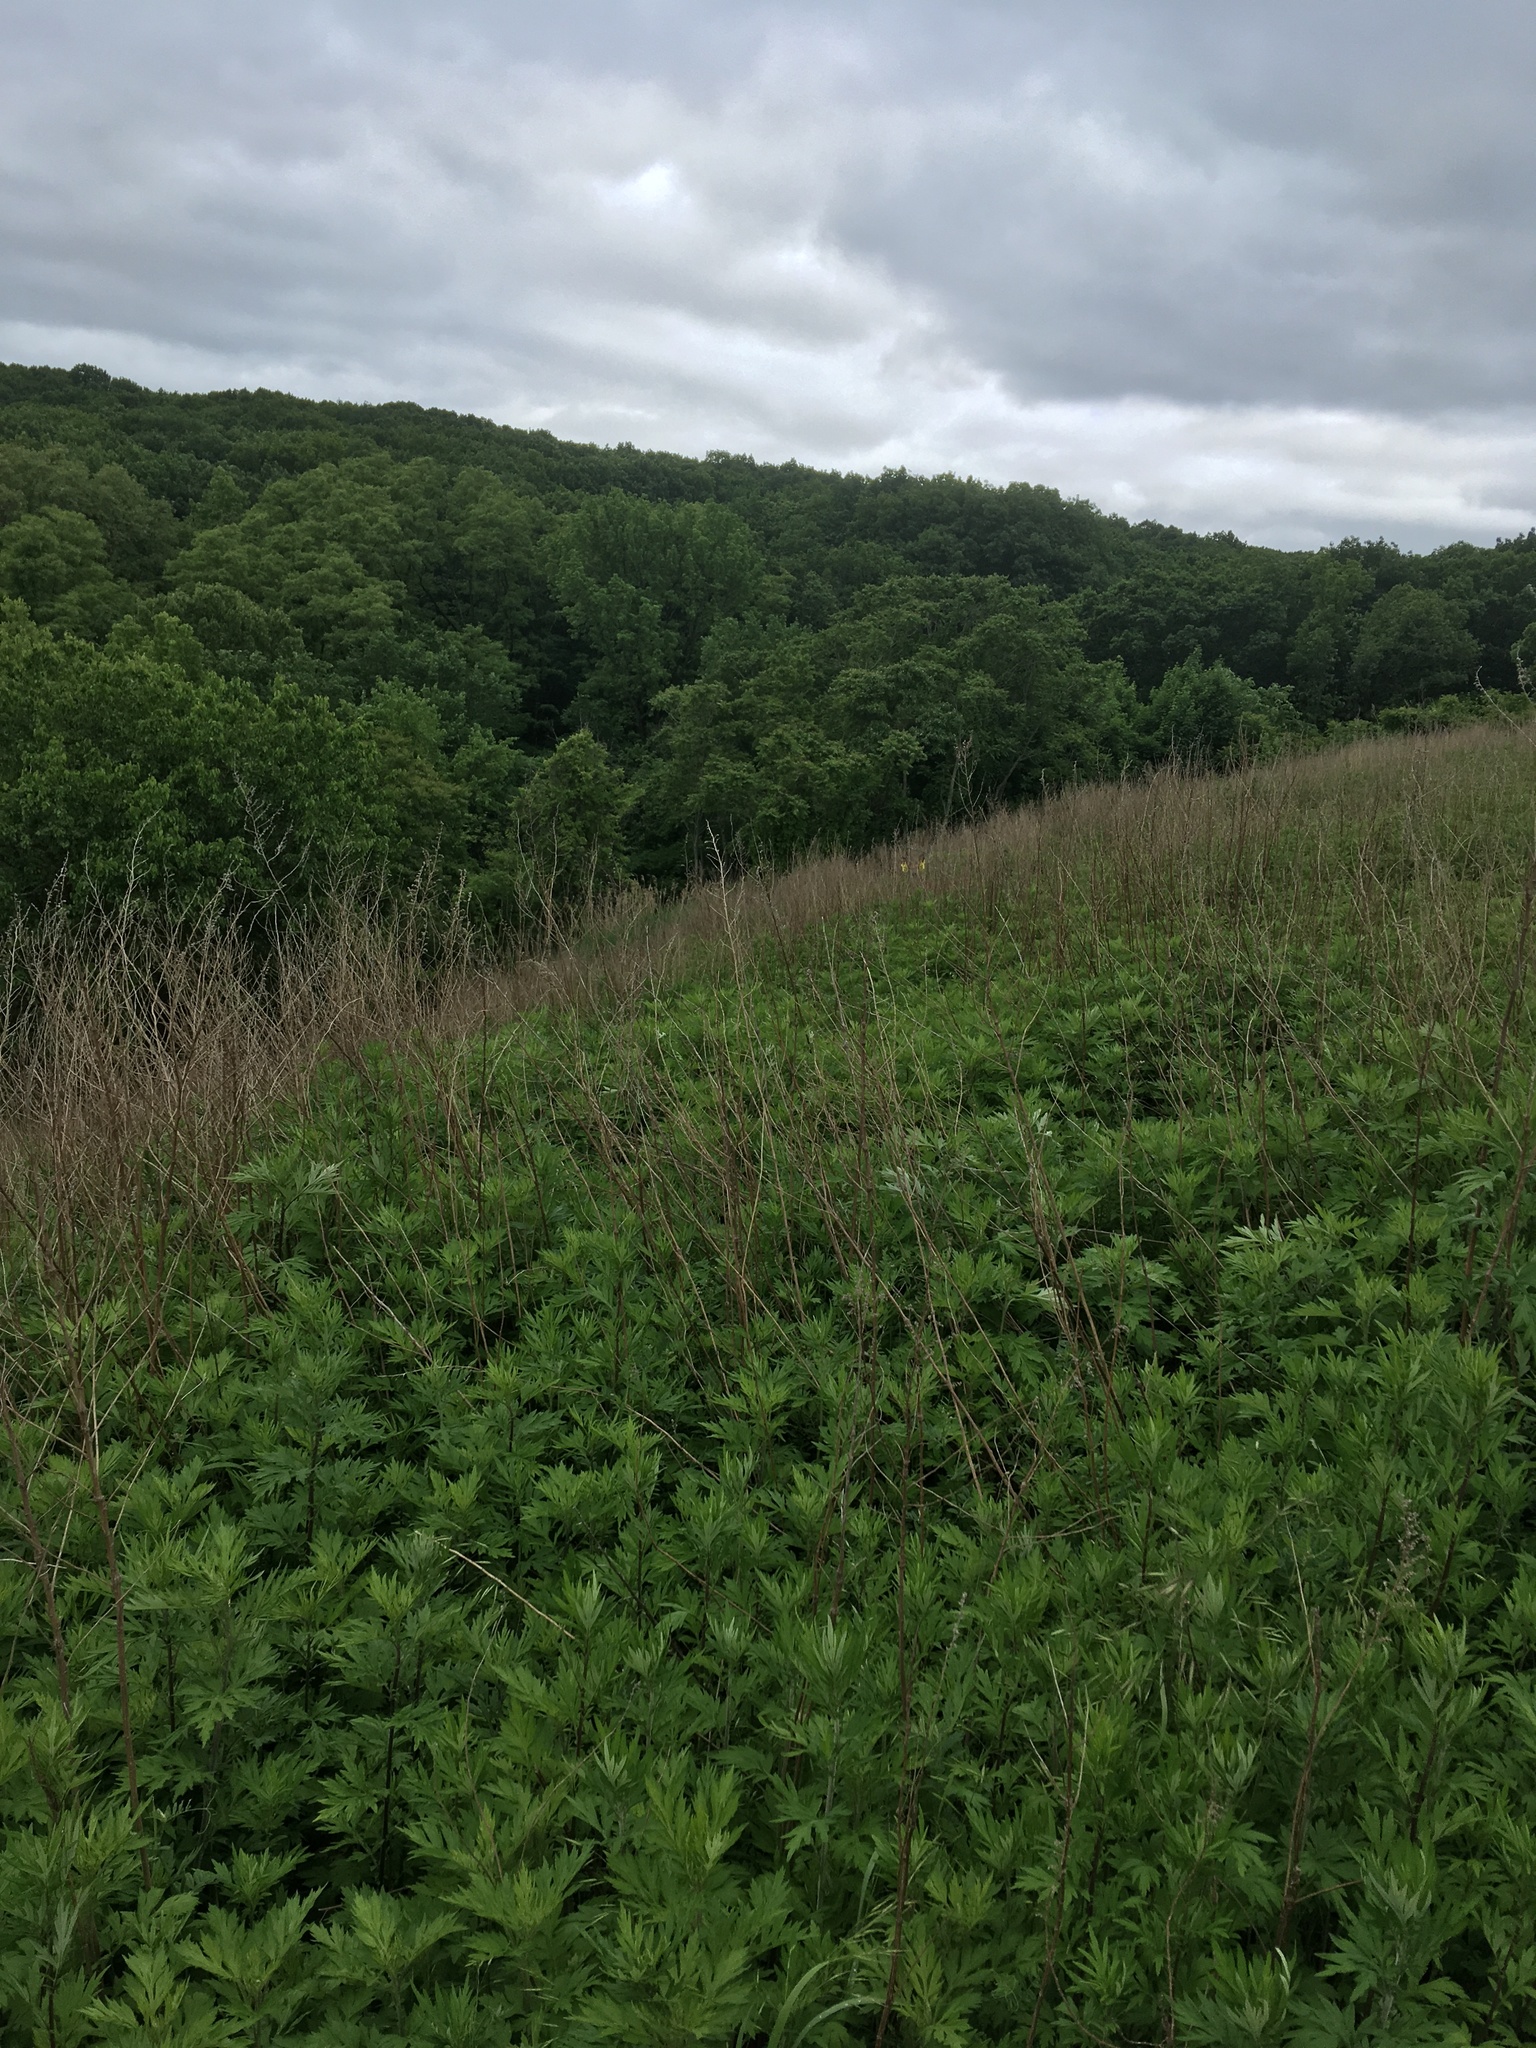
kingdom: Plantae
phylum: Tracheophyta
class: Magnoliopsida
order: Asterales
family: Asteraceae
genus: Artemisia
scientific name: Artemisia vulgaris
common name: Mugwort
